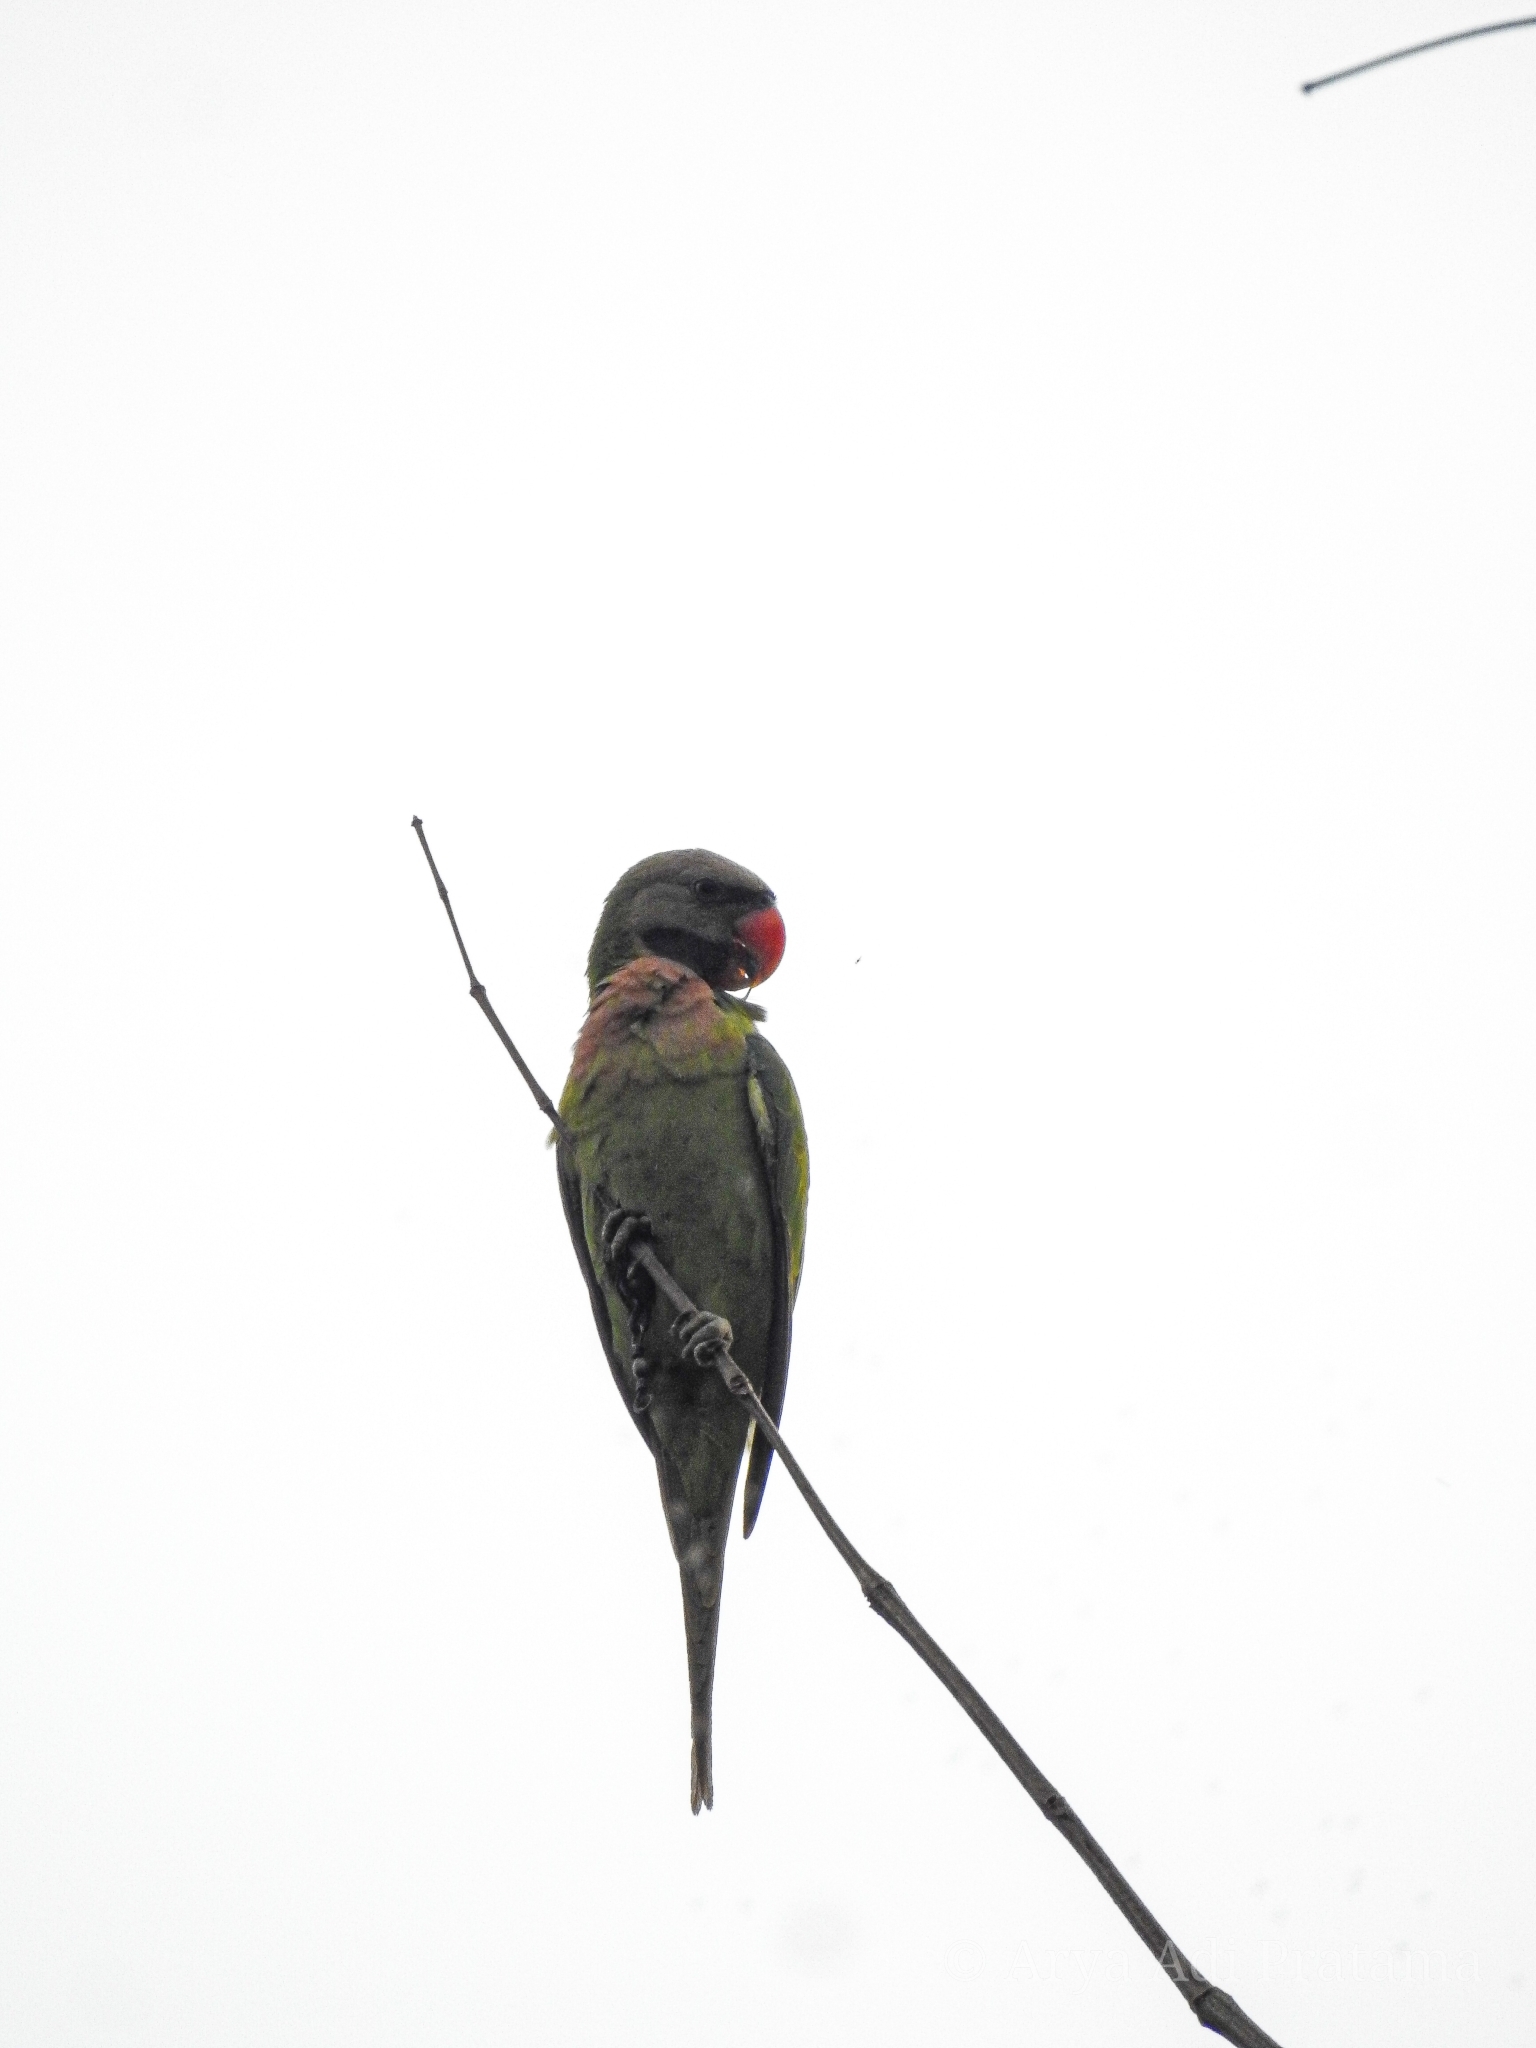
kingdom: Animalia
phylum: Chordata
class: Aves
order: Psittaciformes
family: Psittacidae
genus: Psittacula
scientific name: Psittacula alexandri
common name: Red-breasted parakeet
